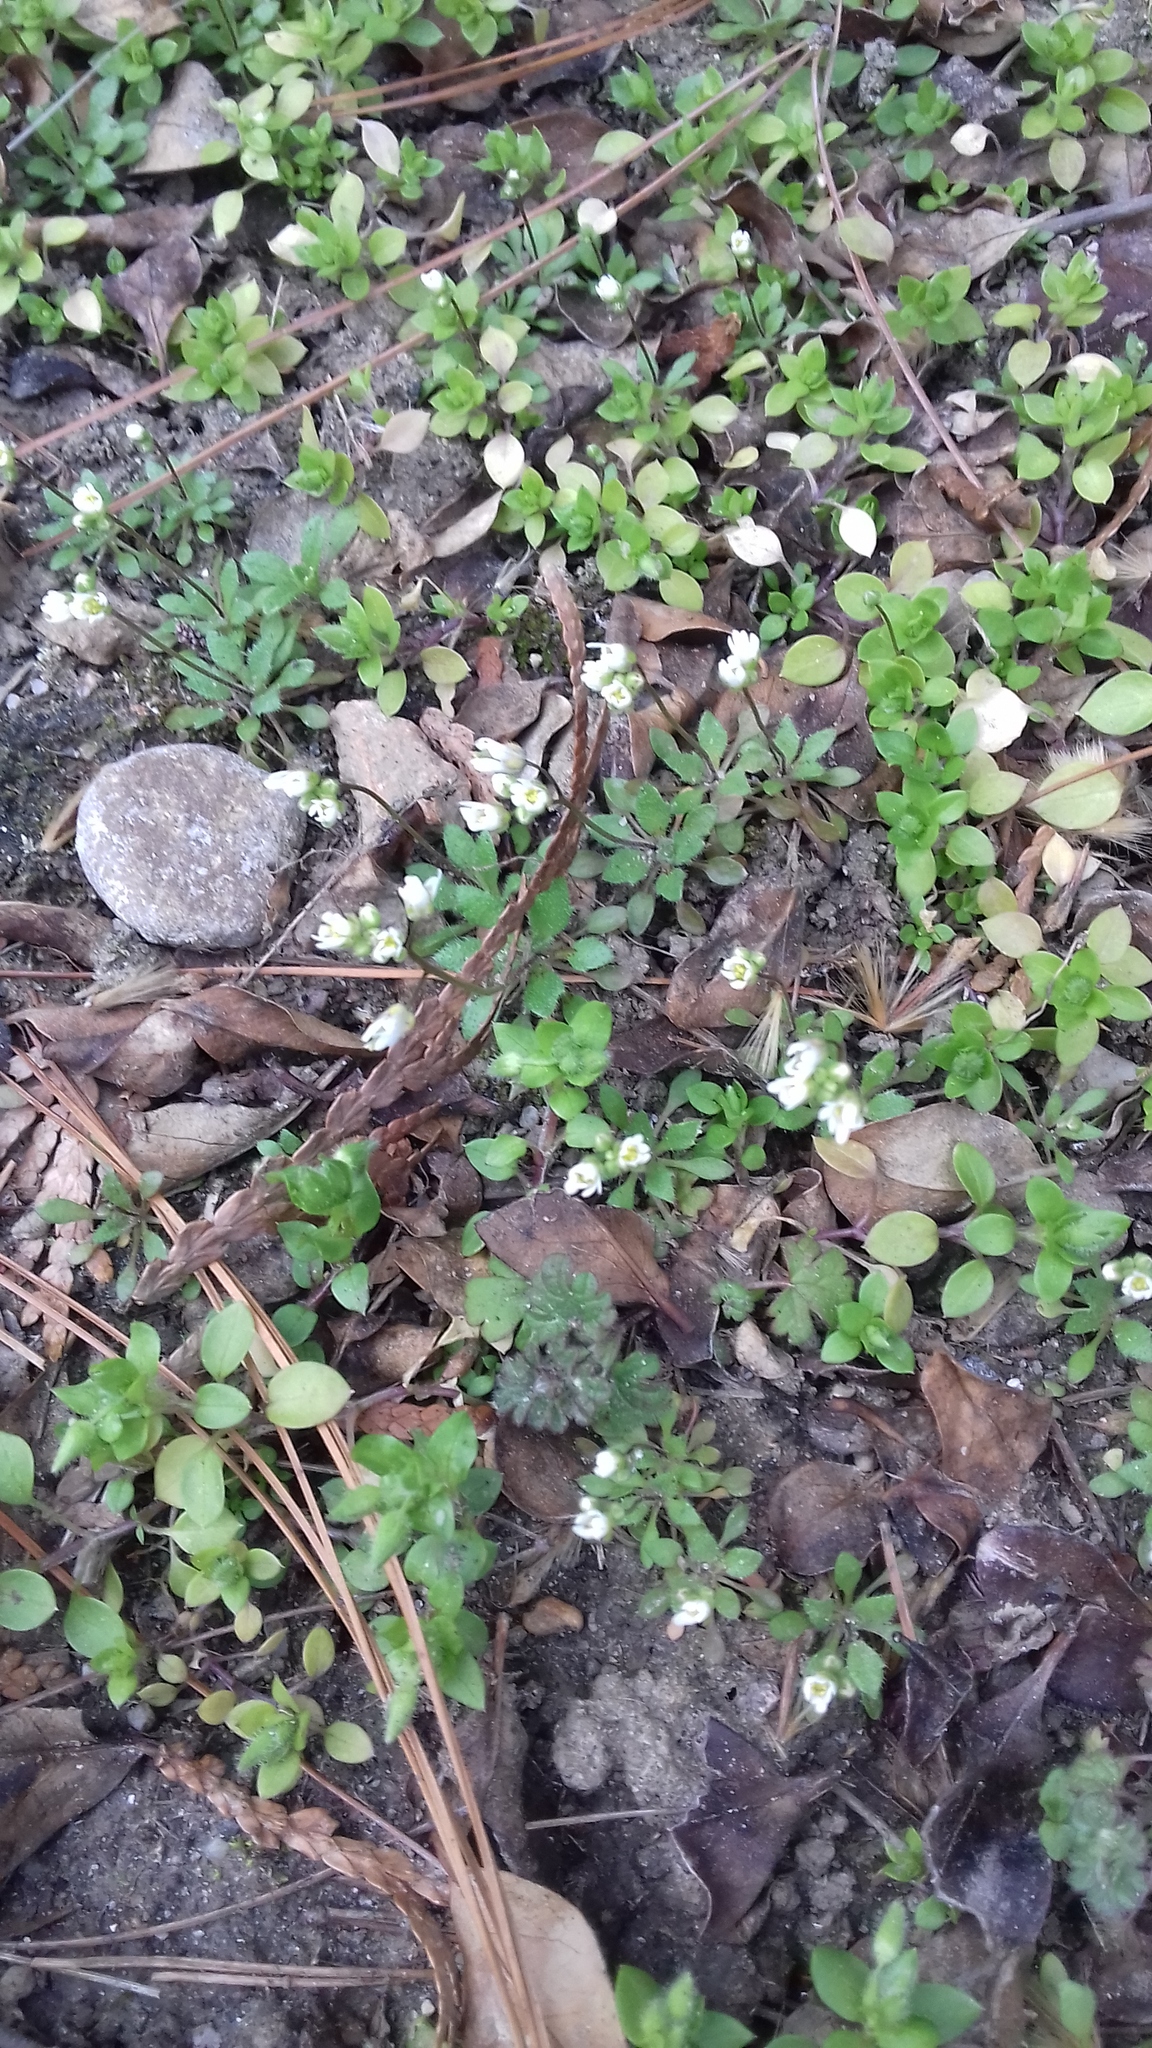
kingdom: Plantae
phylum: Tracheophyta
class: Magnoliopsida
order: Brassicales
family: Brassicaceae
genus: Draba
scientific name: Draba verna
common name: Spring draba
